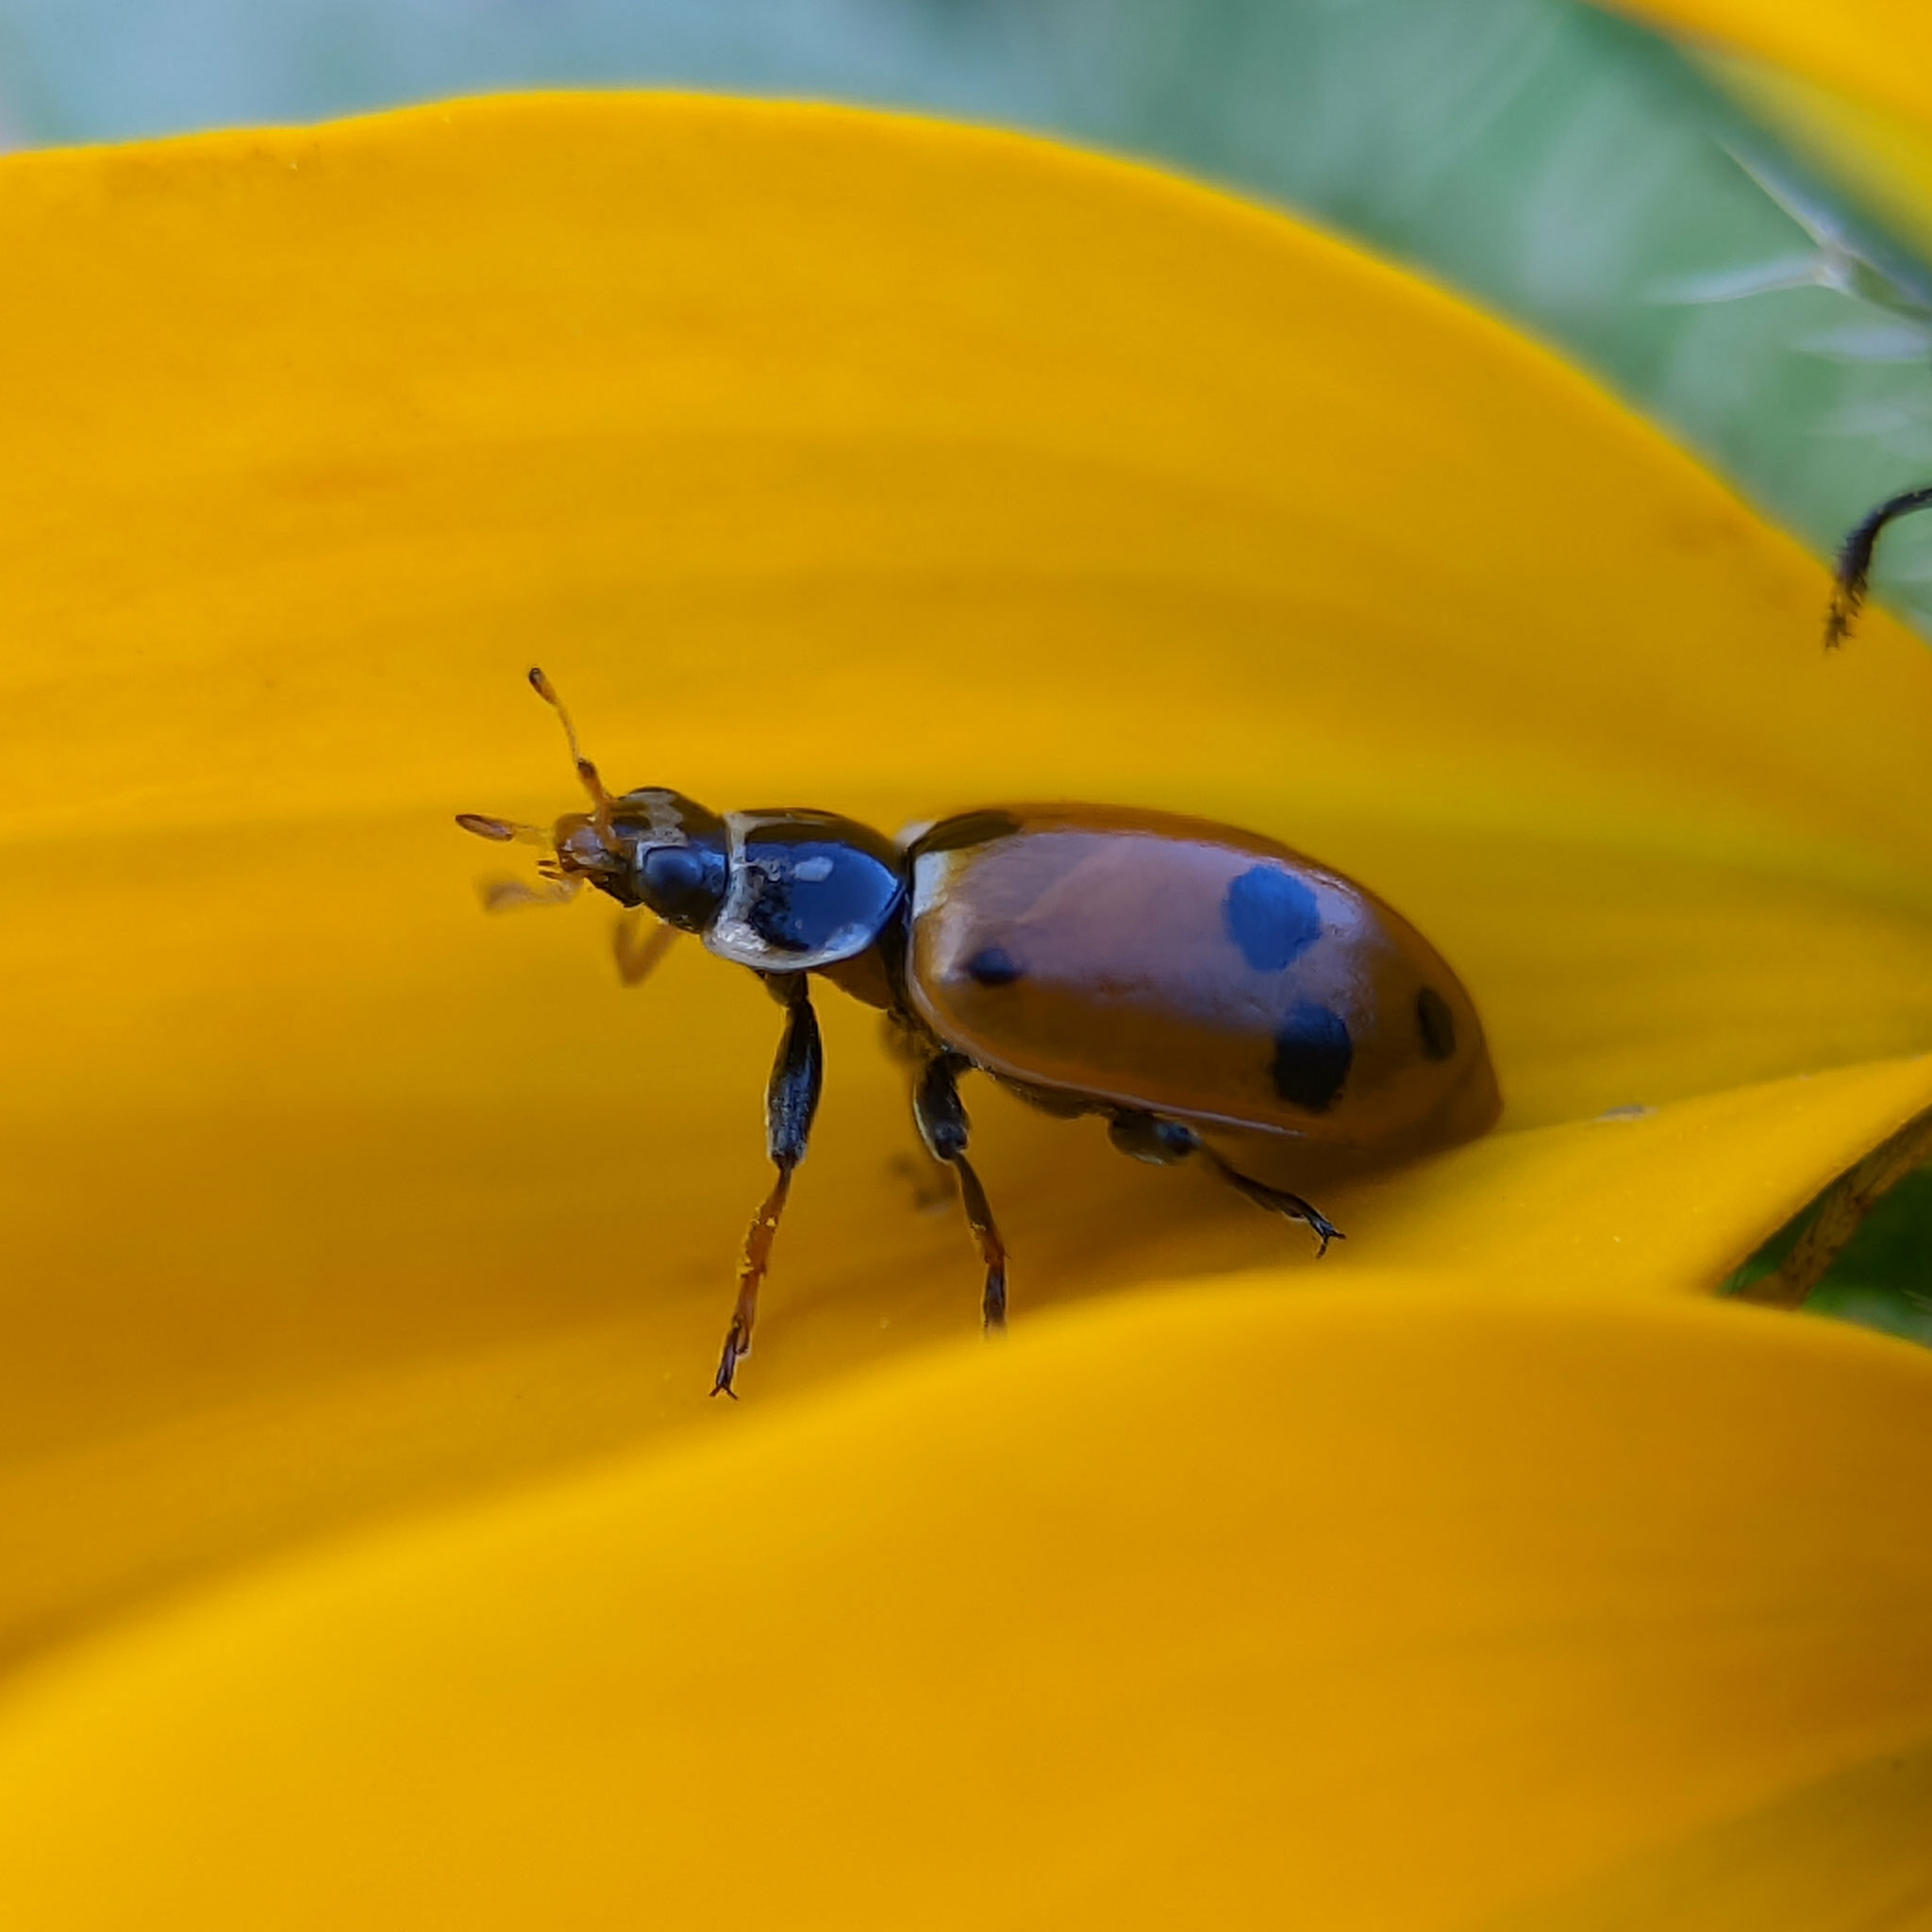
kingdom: Animalia
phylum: Arthropoda
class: Insecta
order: Coleoptera
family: Coccinellidae
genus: Hippodamia
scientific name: Hippodamia variegata
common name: Ladybird beetle
